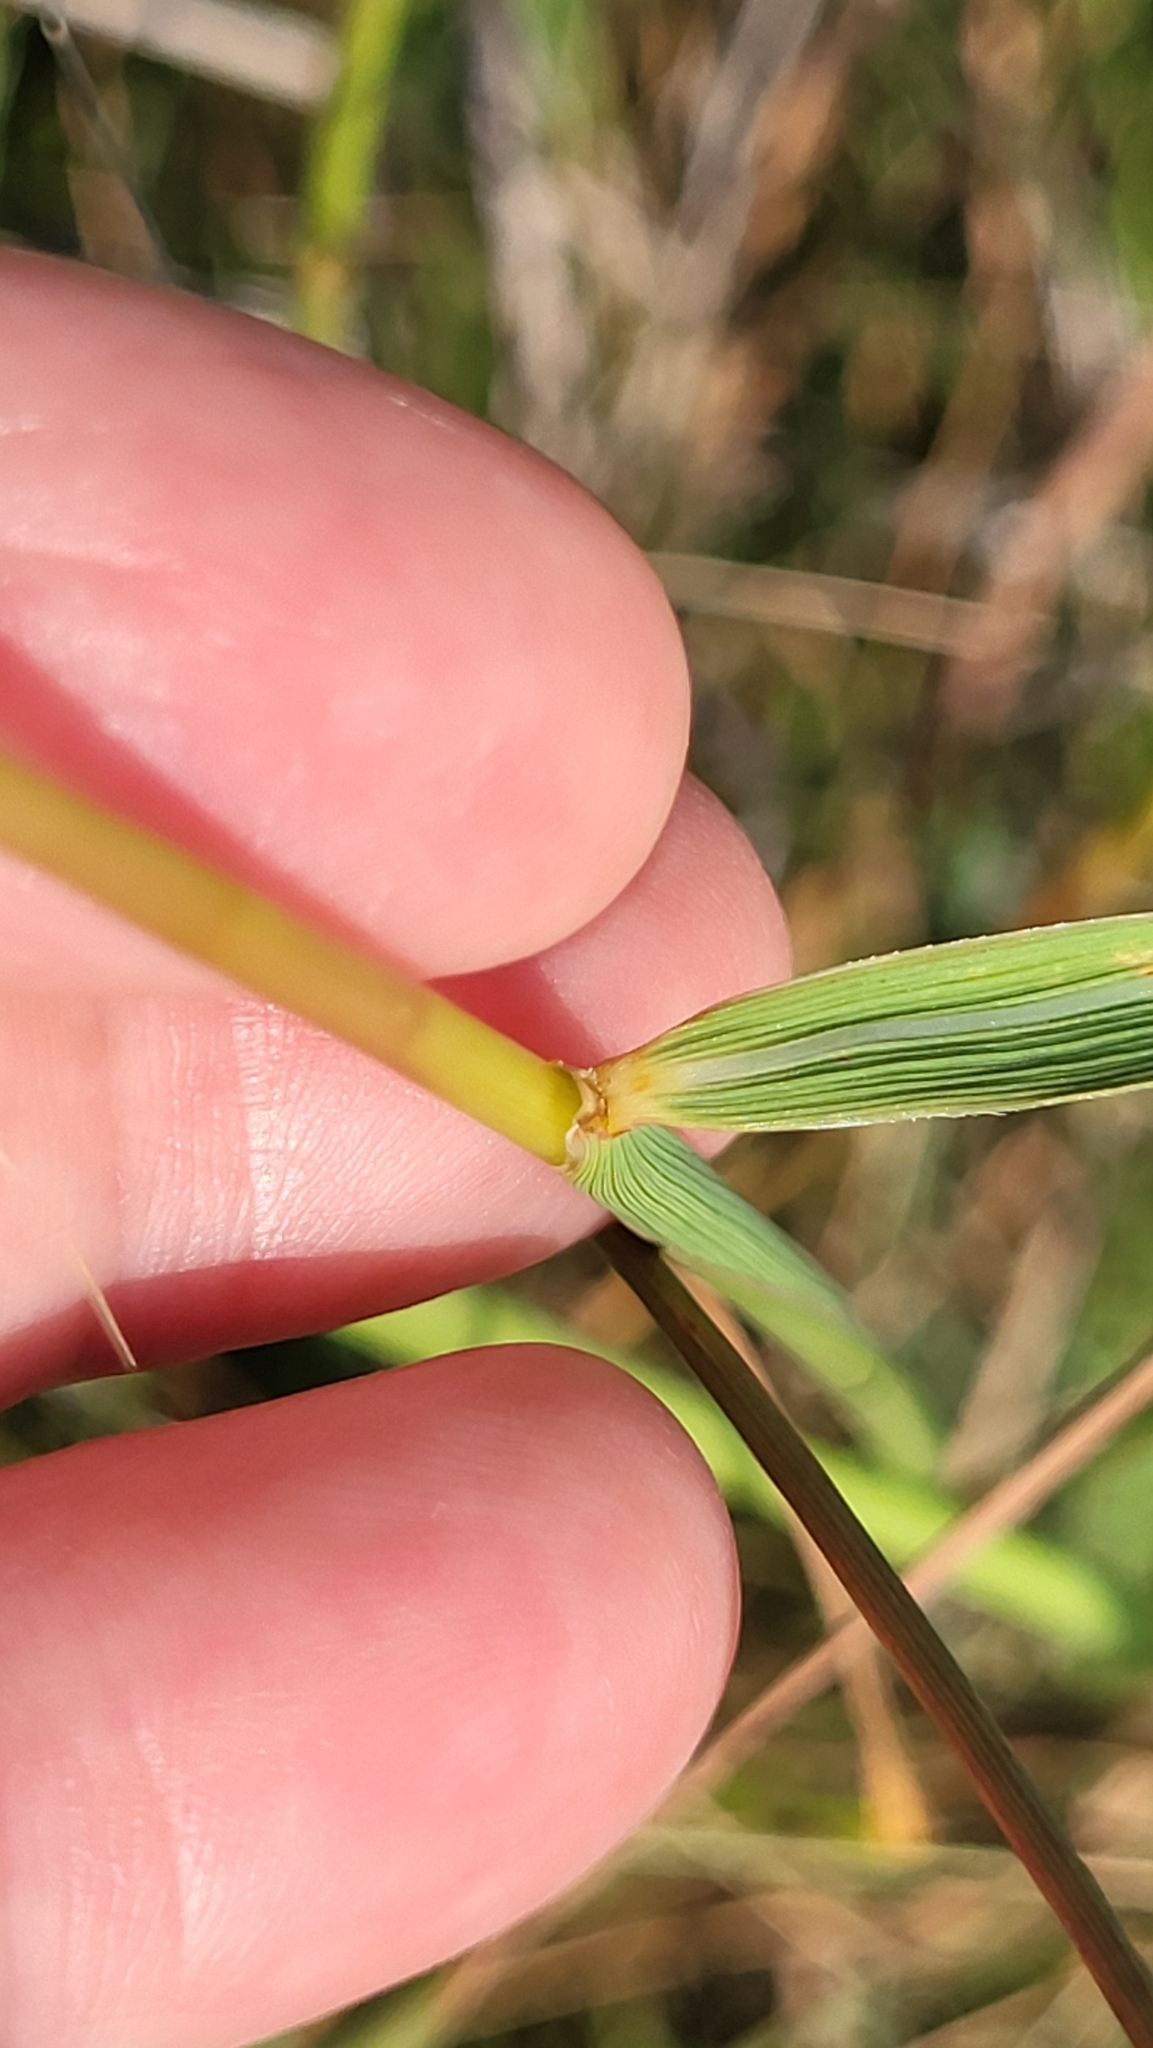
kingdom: Plantae
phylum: Tracheophyta
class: Liliopsida
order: Poales
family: Poaceae
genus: Sorghastrum
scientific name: Sorghastrum nutans
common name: Indian grass
